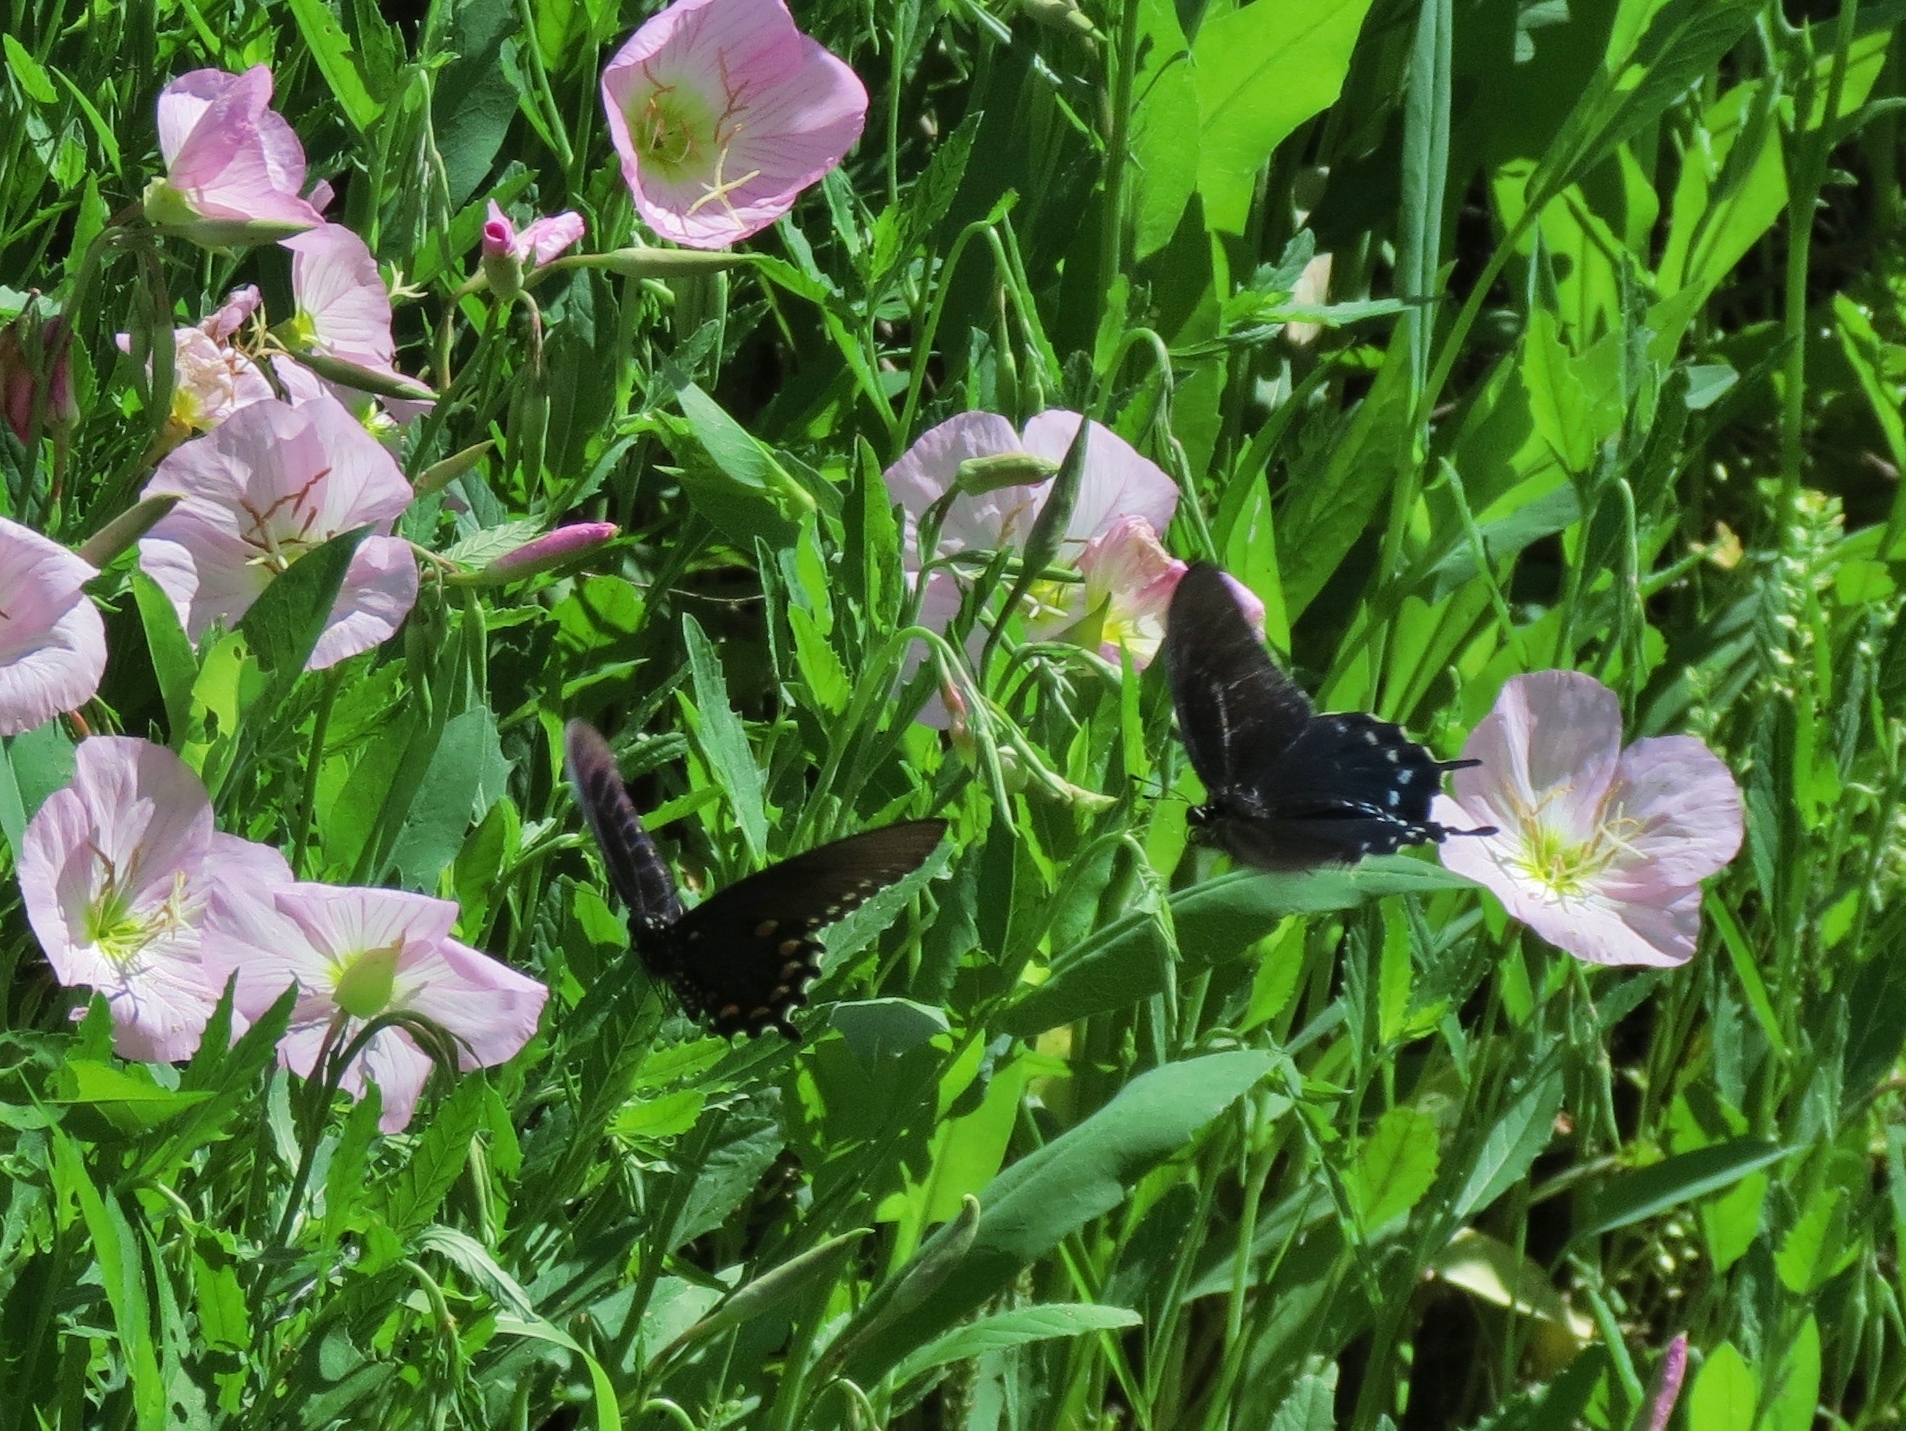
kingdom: Animalia
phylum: Arthropoda
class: Insecta
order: Lepidoptera
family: Papilionidae
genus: Battus
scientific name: Battus philenor
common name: Pipevine swallowtail
